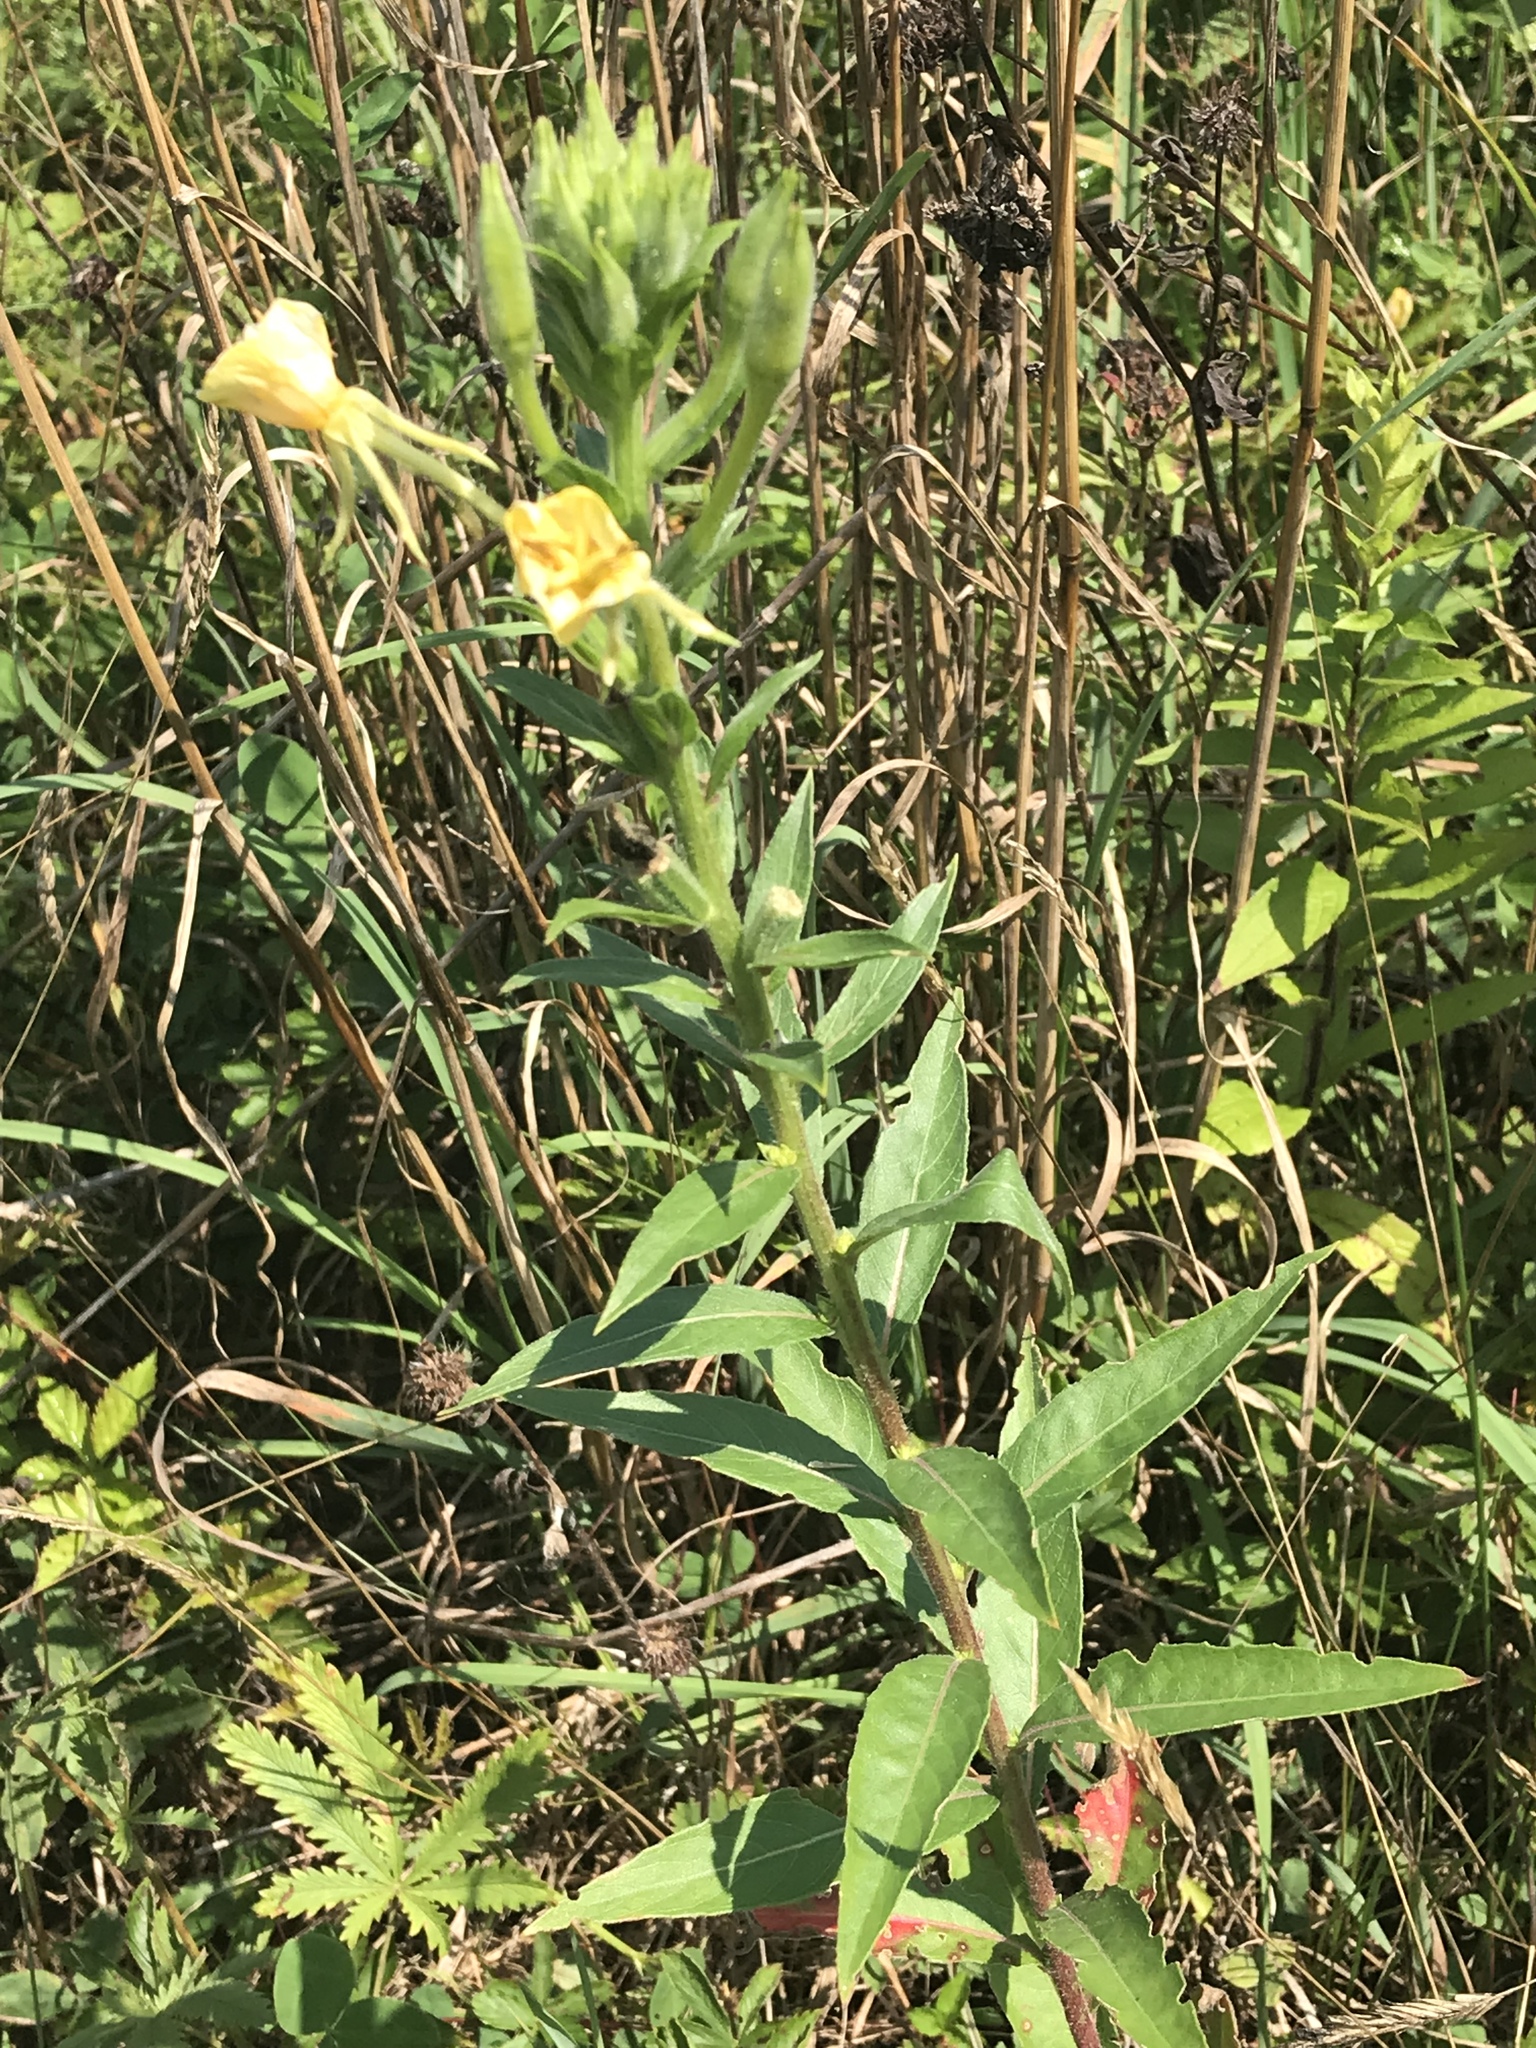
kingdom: Plantae
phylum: Tracheophyta
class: Magnoliopsida
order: Myrtales
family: Onagraceae
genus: Oenothera
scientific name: Oenothera biennis
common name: Common evening-primrose
